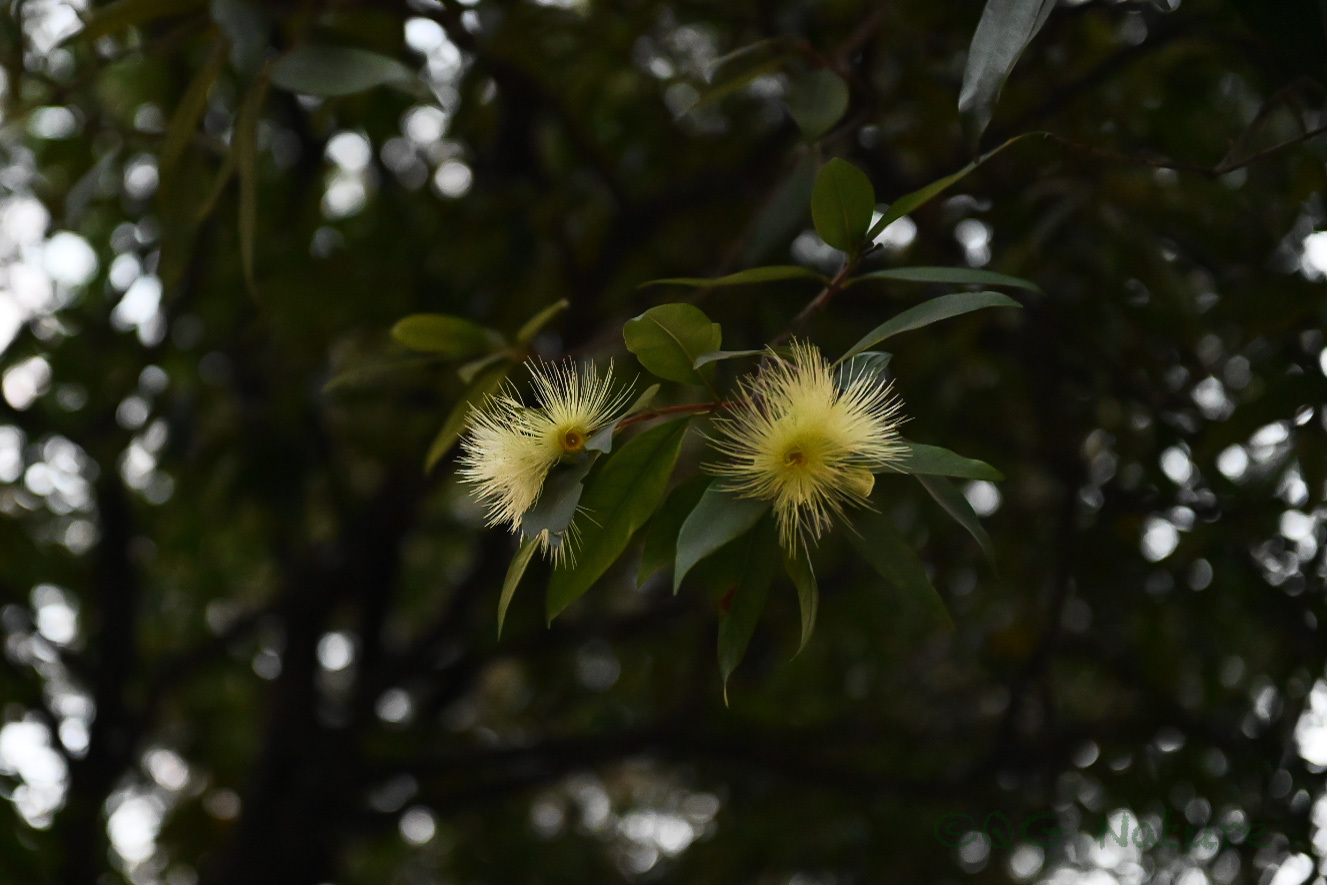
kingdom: Plantae
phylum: Tracheophyta
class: Magnoliopsida
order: Myrtales
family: Myrtaceae
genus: Syzygium
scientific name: Syzygium jambos
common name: Malabar plum
